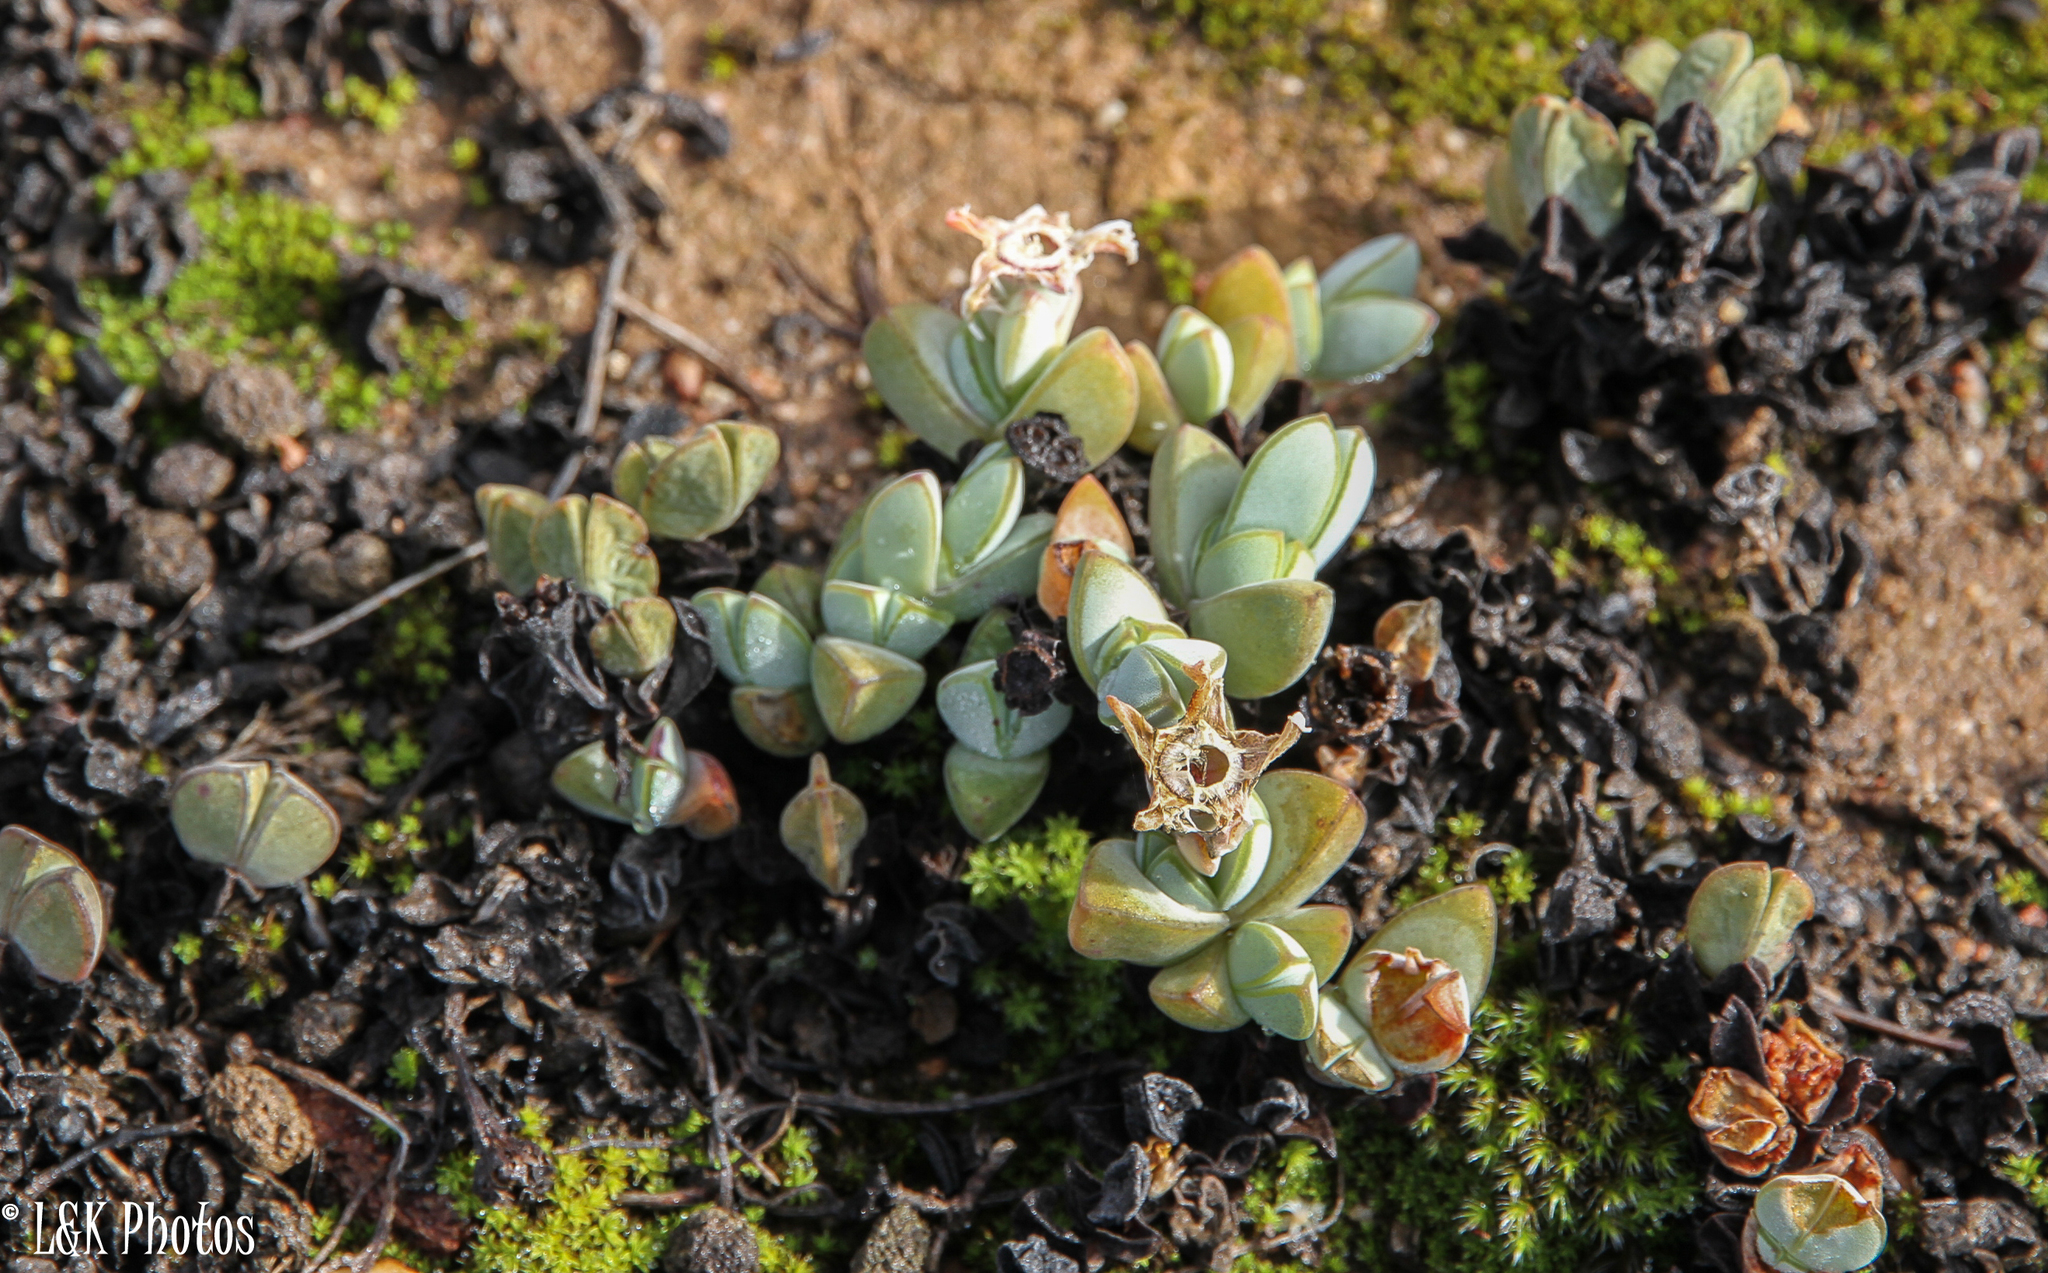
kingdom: Plantae
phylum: Tracheophyta
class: Magnoliopsida
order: Caryophyllales
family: Aizoaceae
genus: Braunsia
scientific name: Braunsia maximiliani
